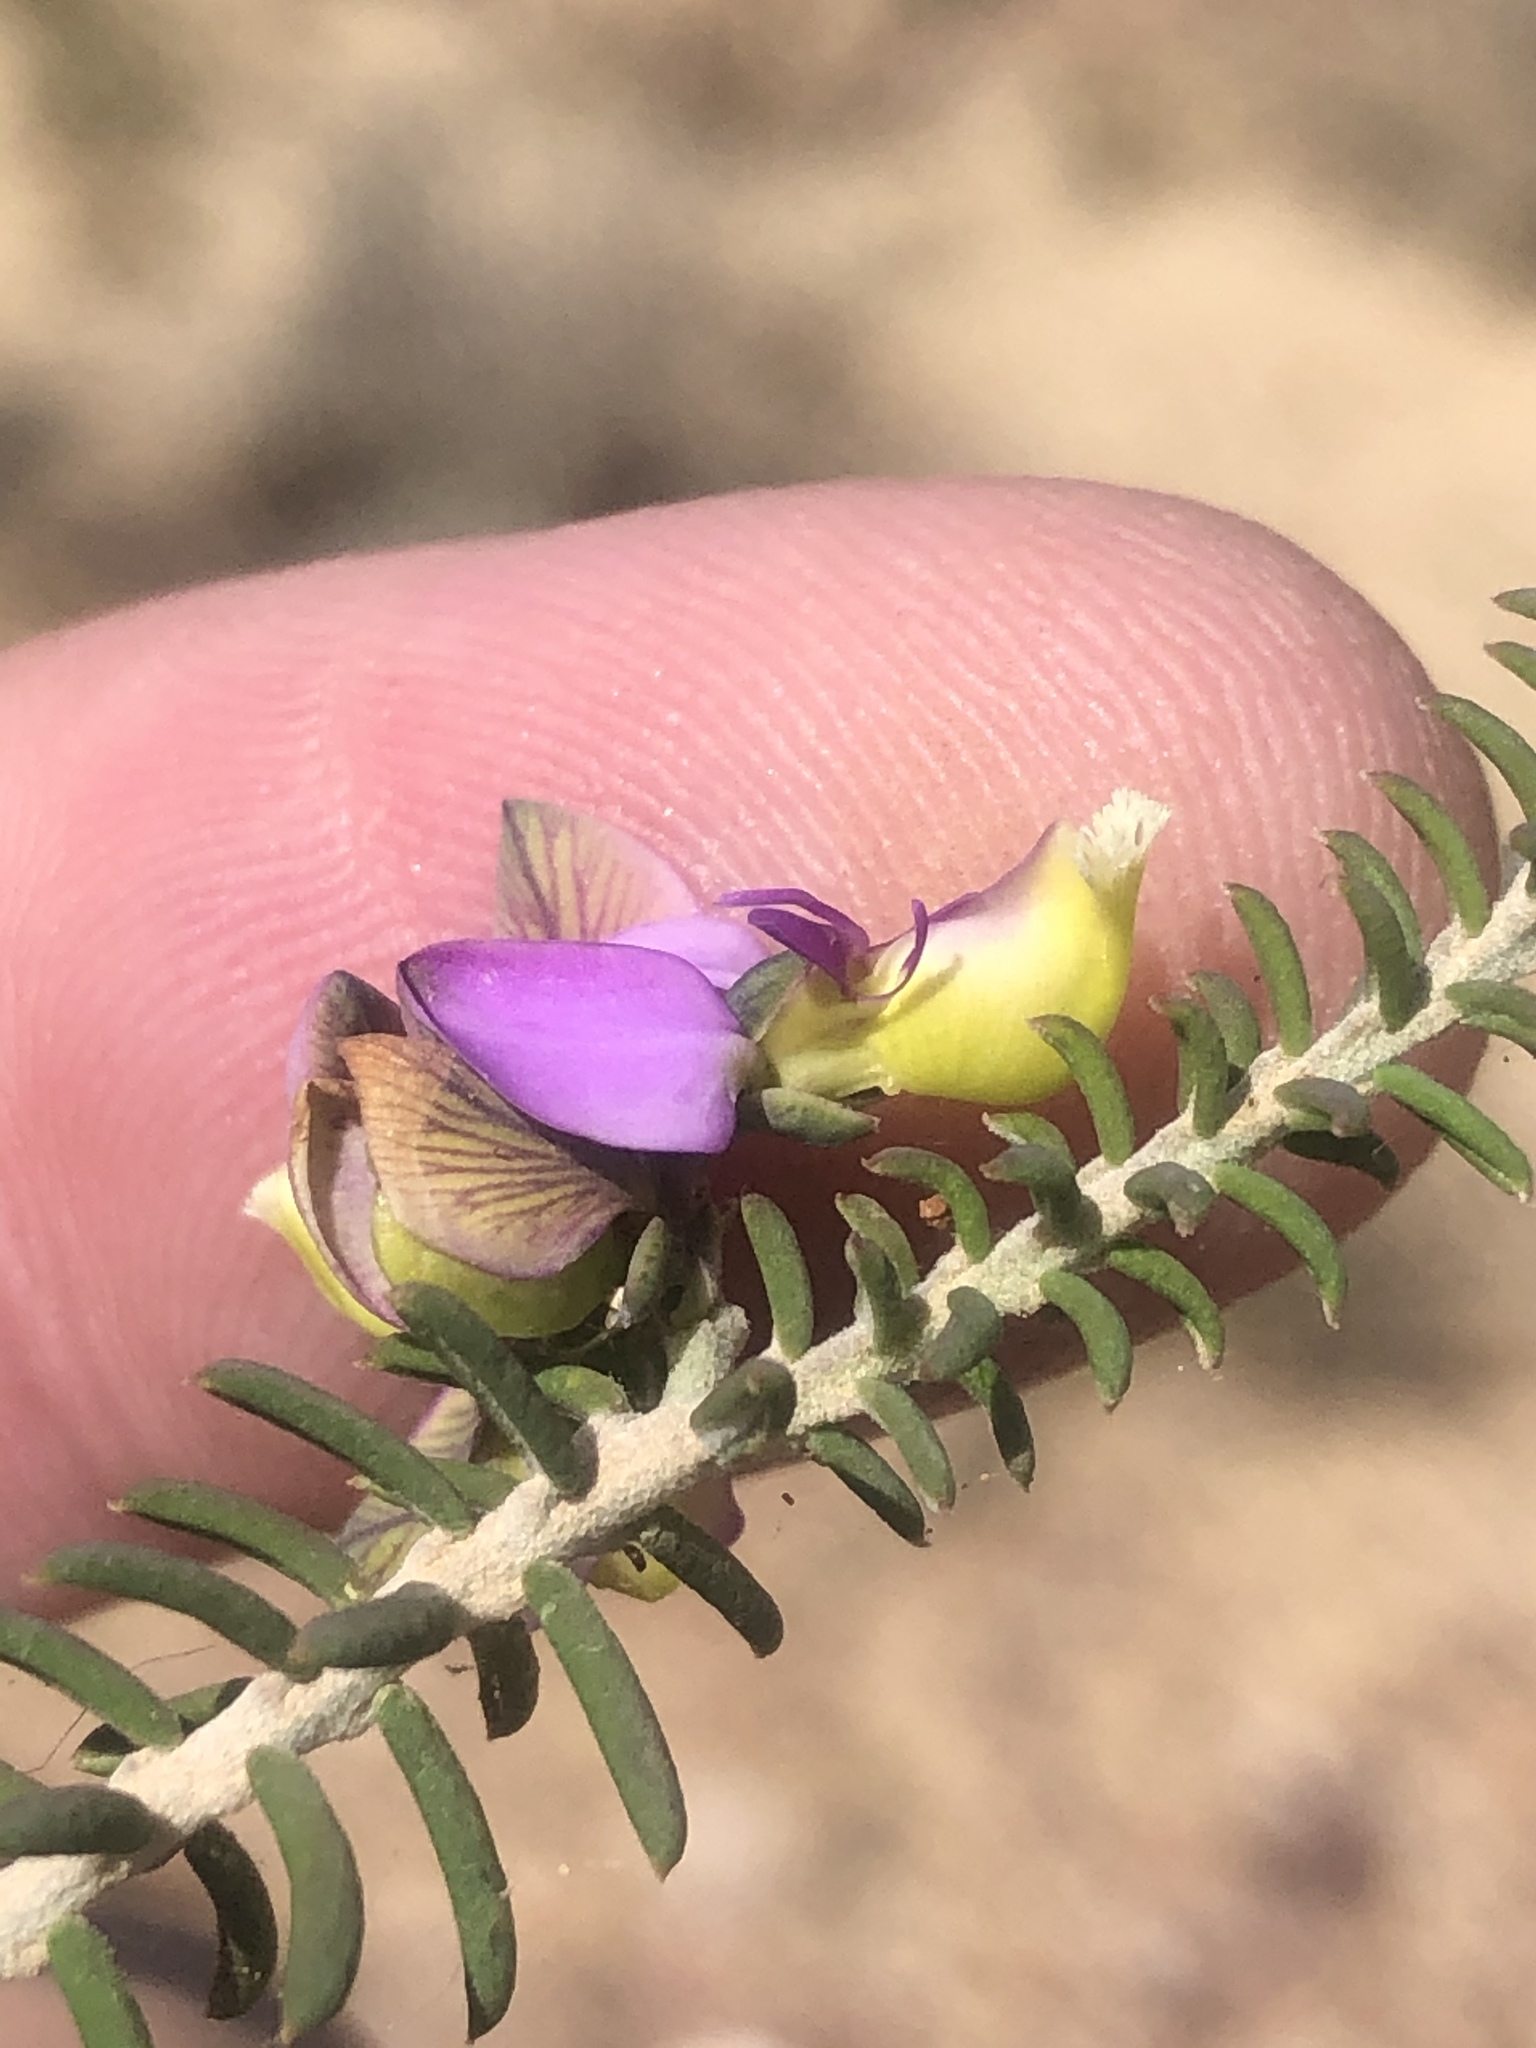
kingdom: Plantae
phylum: Tracheophyta
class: Magnoliopsida
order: Fabales
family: Polygalaceae
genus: Polygala
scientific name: Polygala teretifolia
